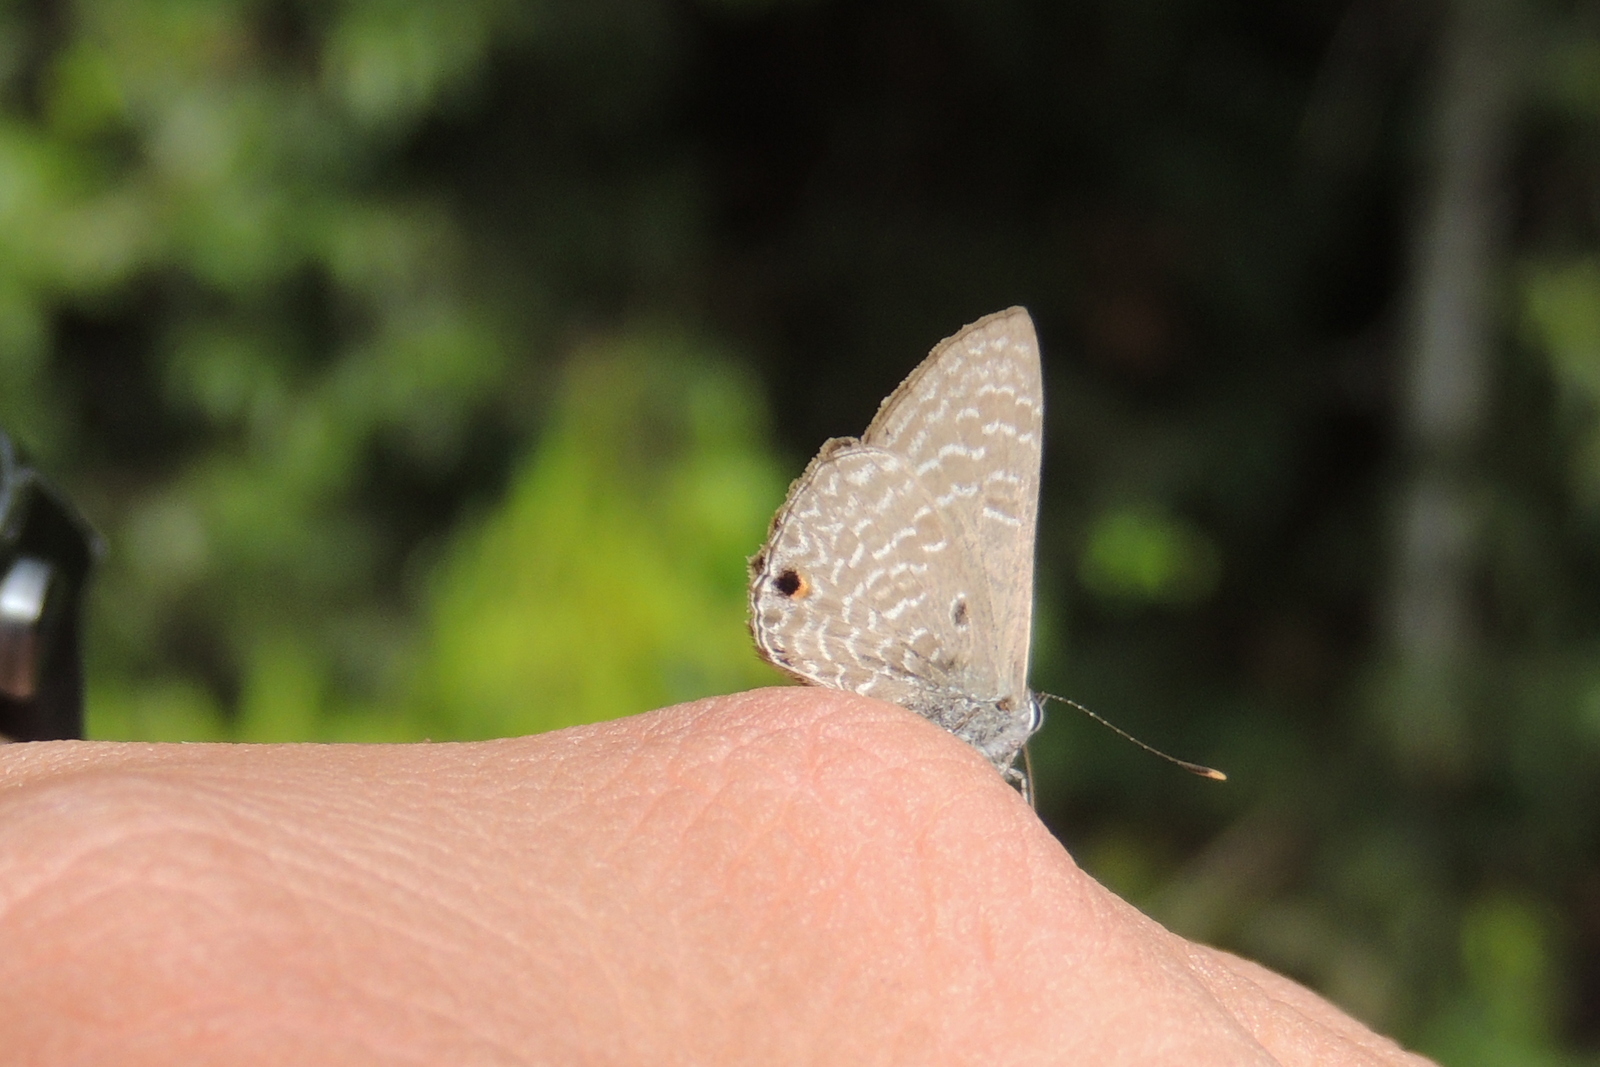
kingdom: Animalia
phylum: Arthropoda
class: Insecta
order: Lepidoptera
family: Lycaenidae
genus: Anthene
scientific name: Anthene lycaenina
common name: Pointed ciliate blue
